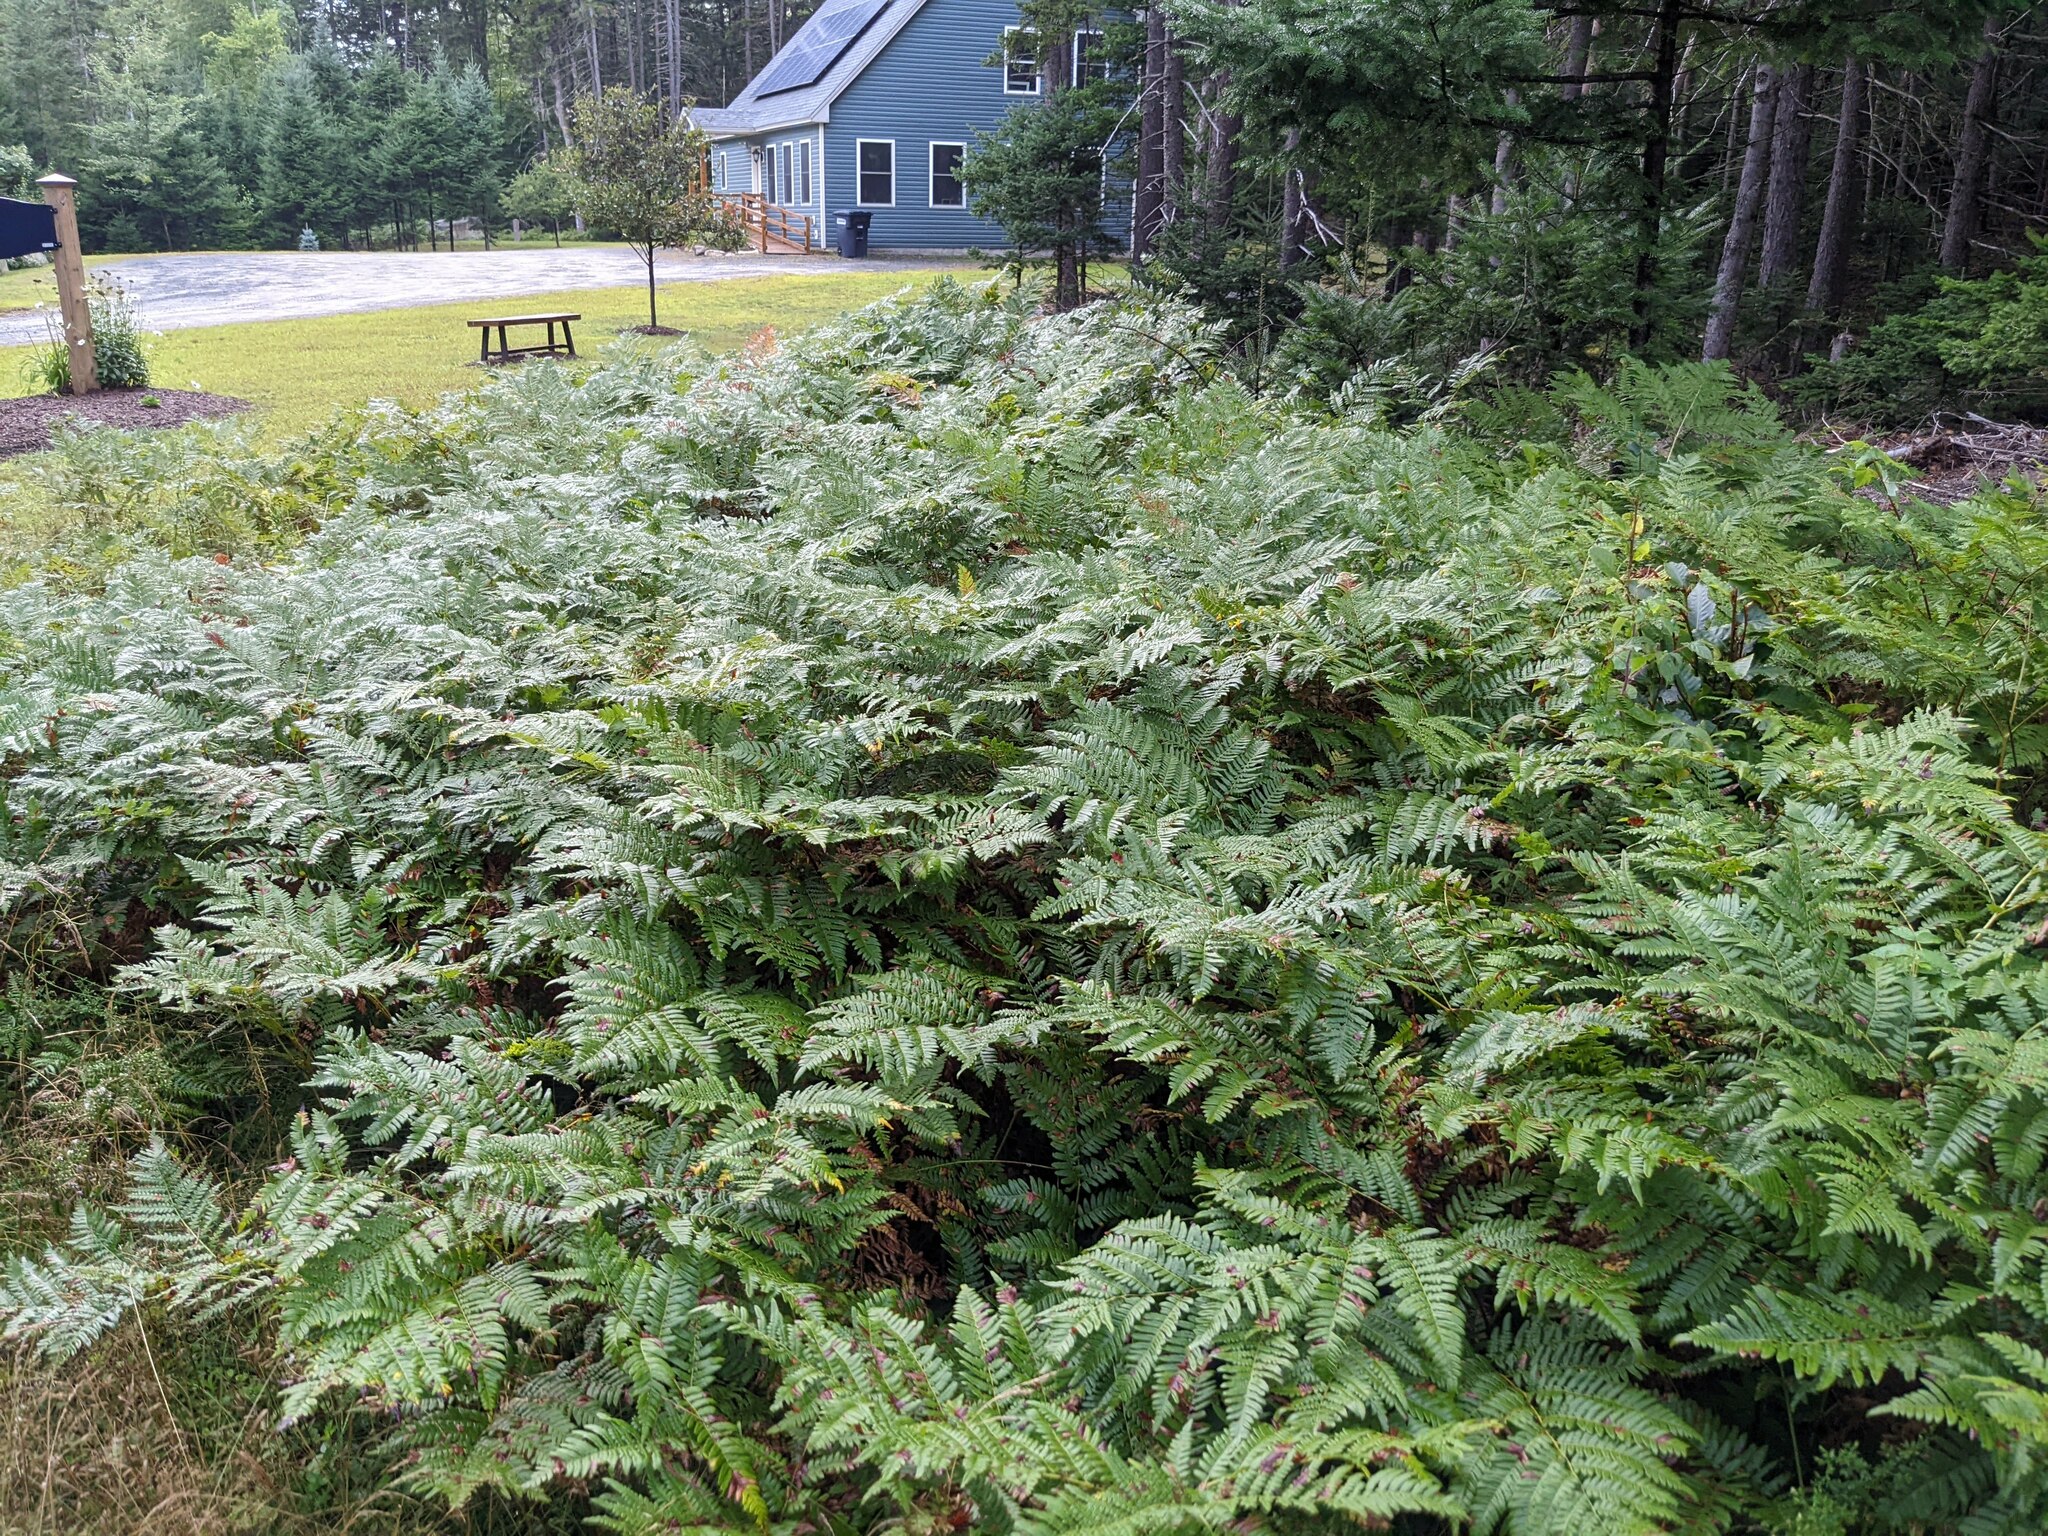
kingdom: Plantae
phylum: Tracheophyta
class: Polypodiopsida
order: Polypodiales
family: Dennstaedtiaceae
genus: Pteridium
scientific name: Pteridium aquilinum
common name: Bracken
